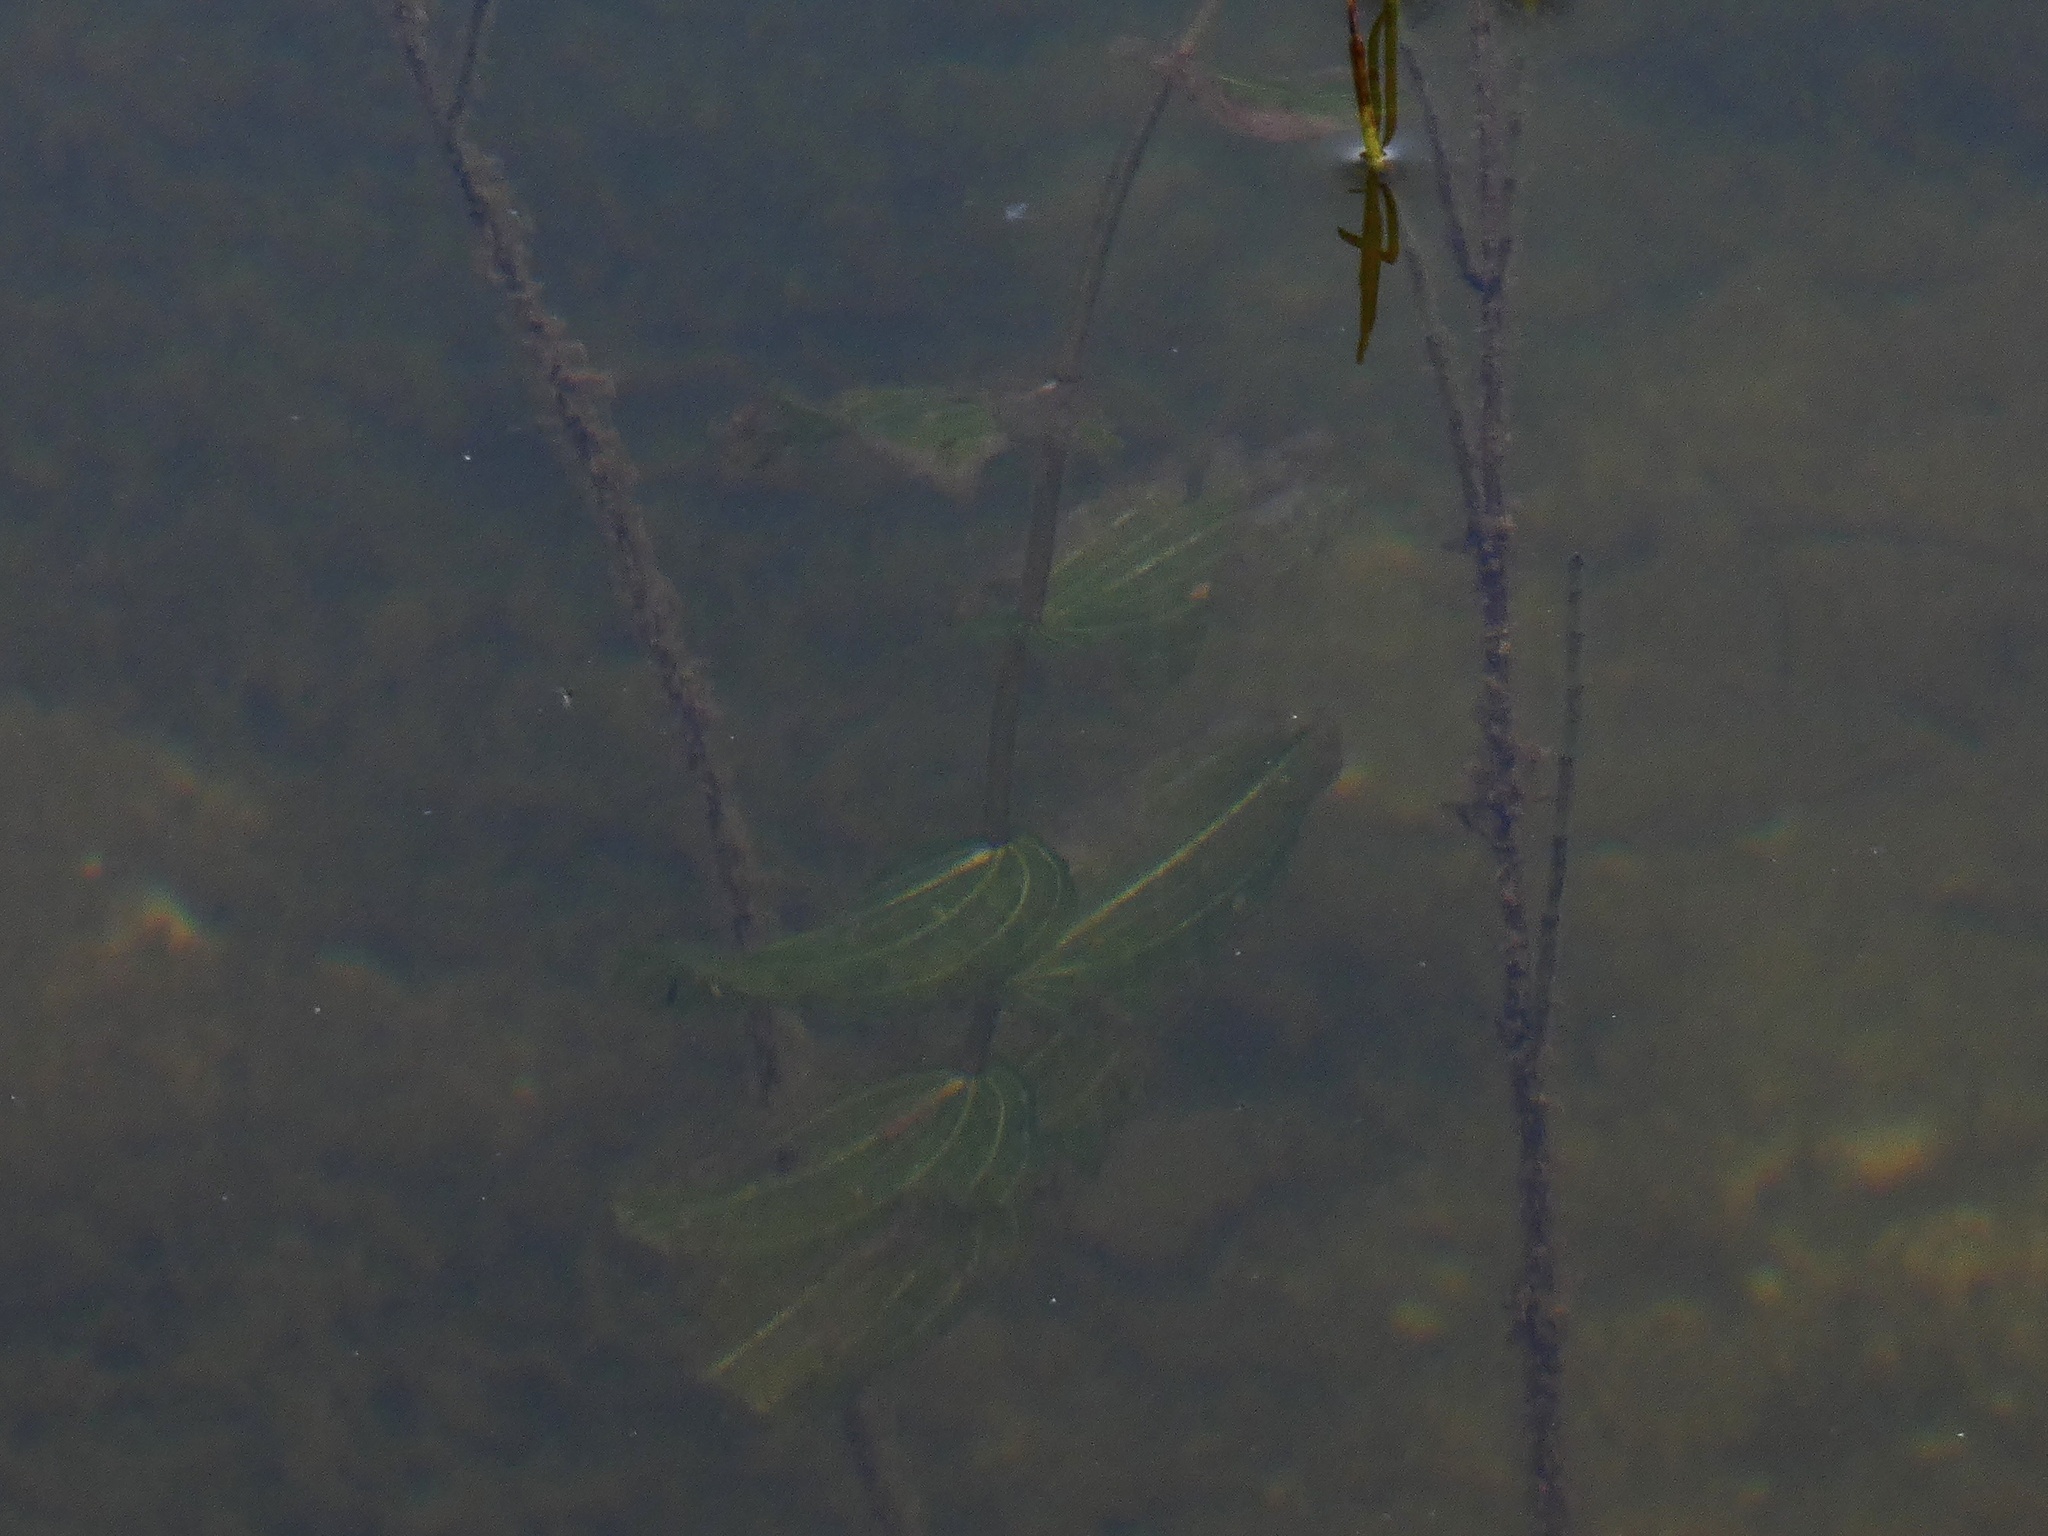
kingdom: Plantae
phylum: Tracheophyta
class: Liliopsida
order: Alismatales
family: Potamogetonaceae
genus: Potamogeton
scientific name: Potamogeton perfoliatus
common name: Perfoliate pondweed
